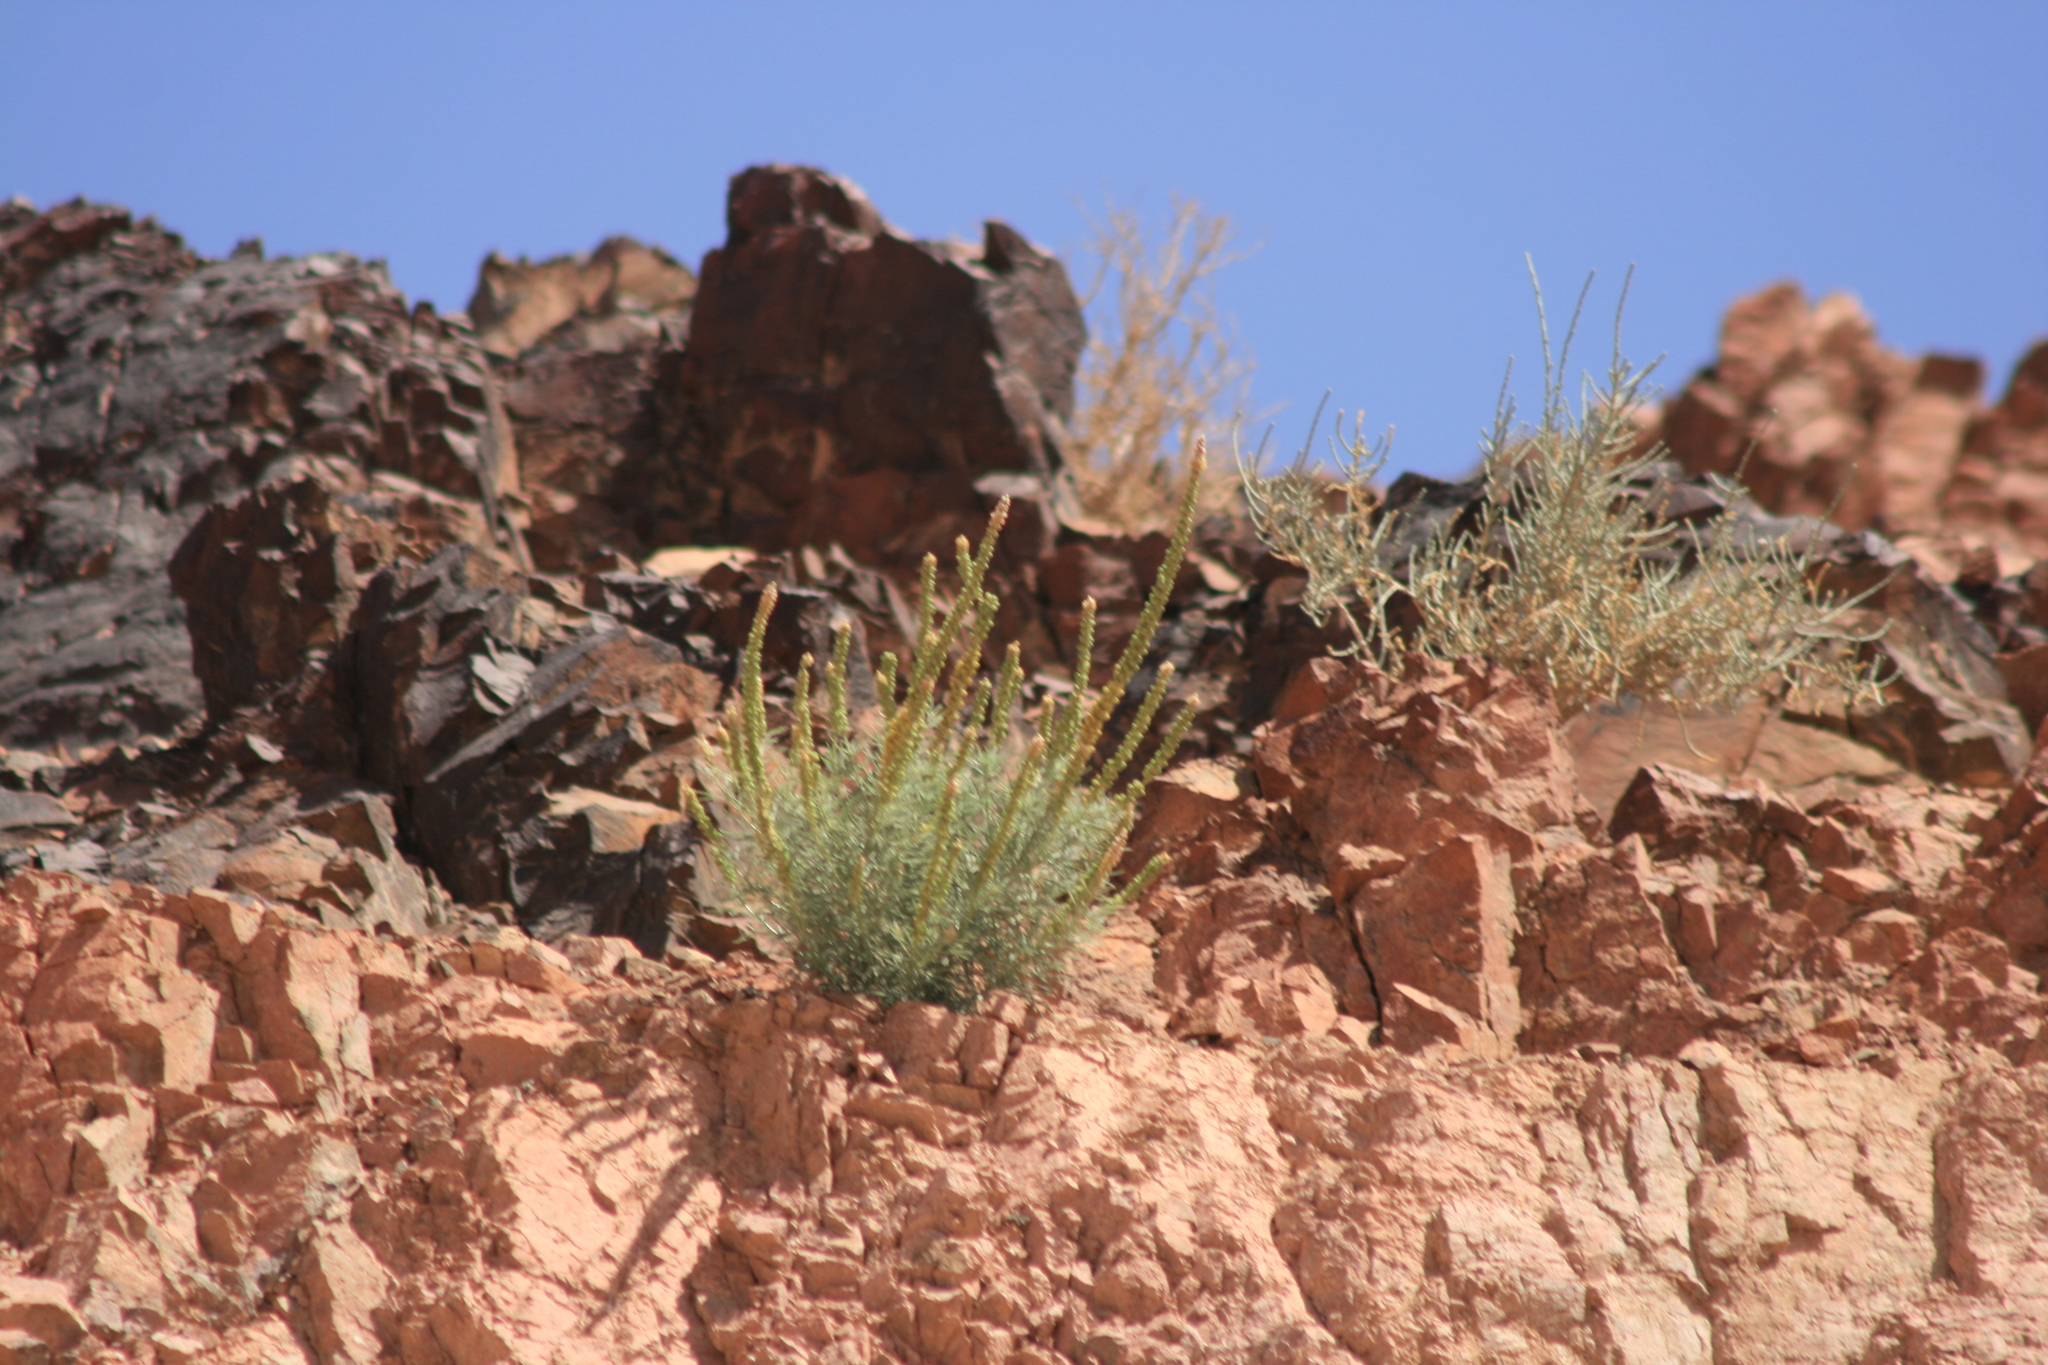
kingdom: Plantae
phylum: Tracheophyta
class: Magnoliopsida
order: Brassicales
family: Resedaceae
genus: Reseda
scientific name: Reseda muricata
